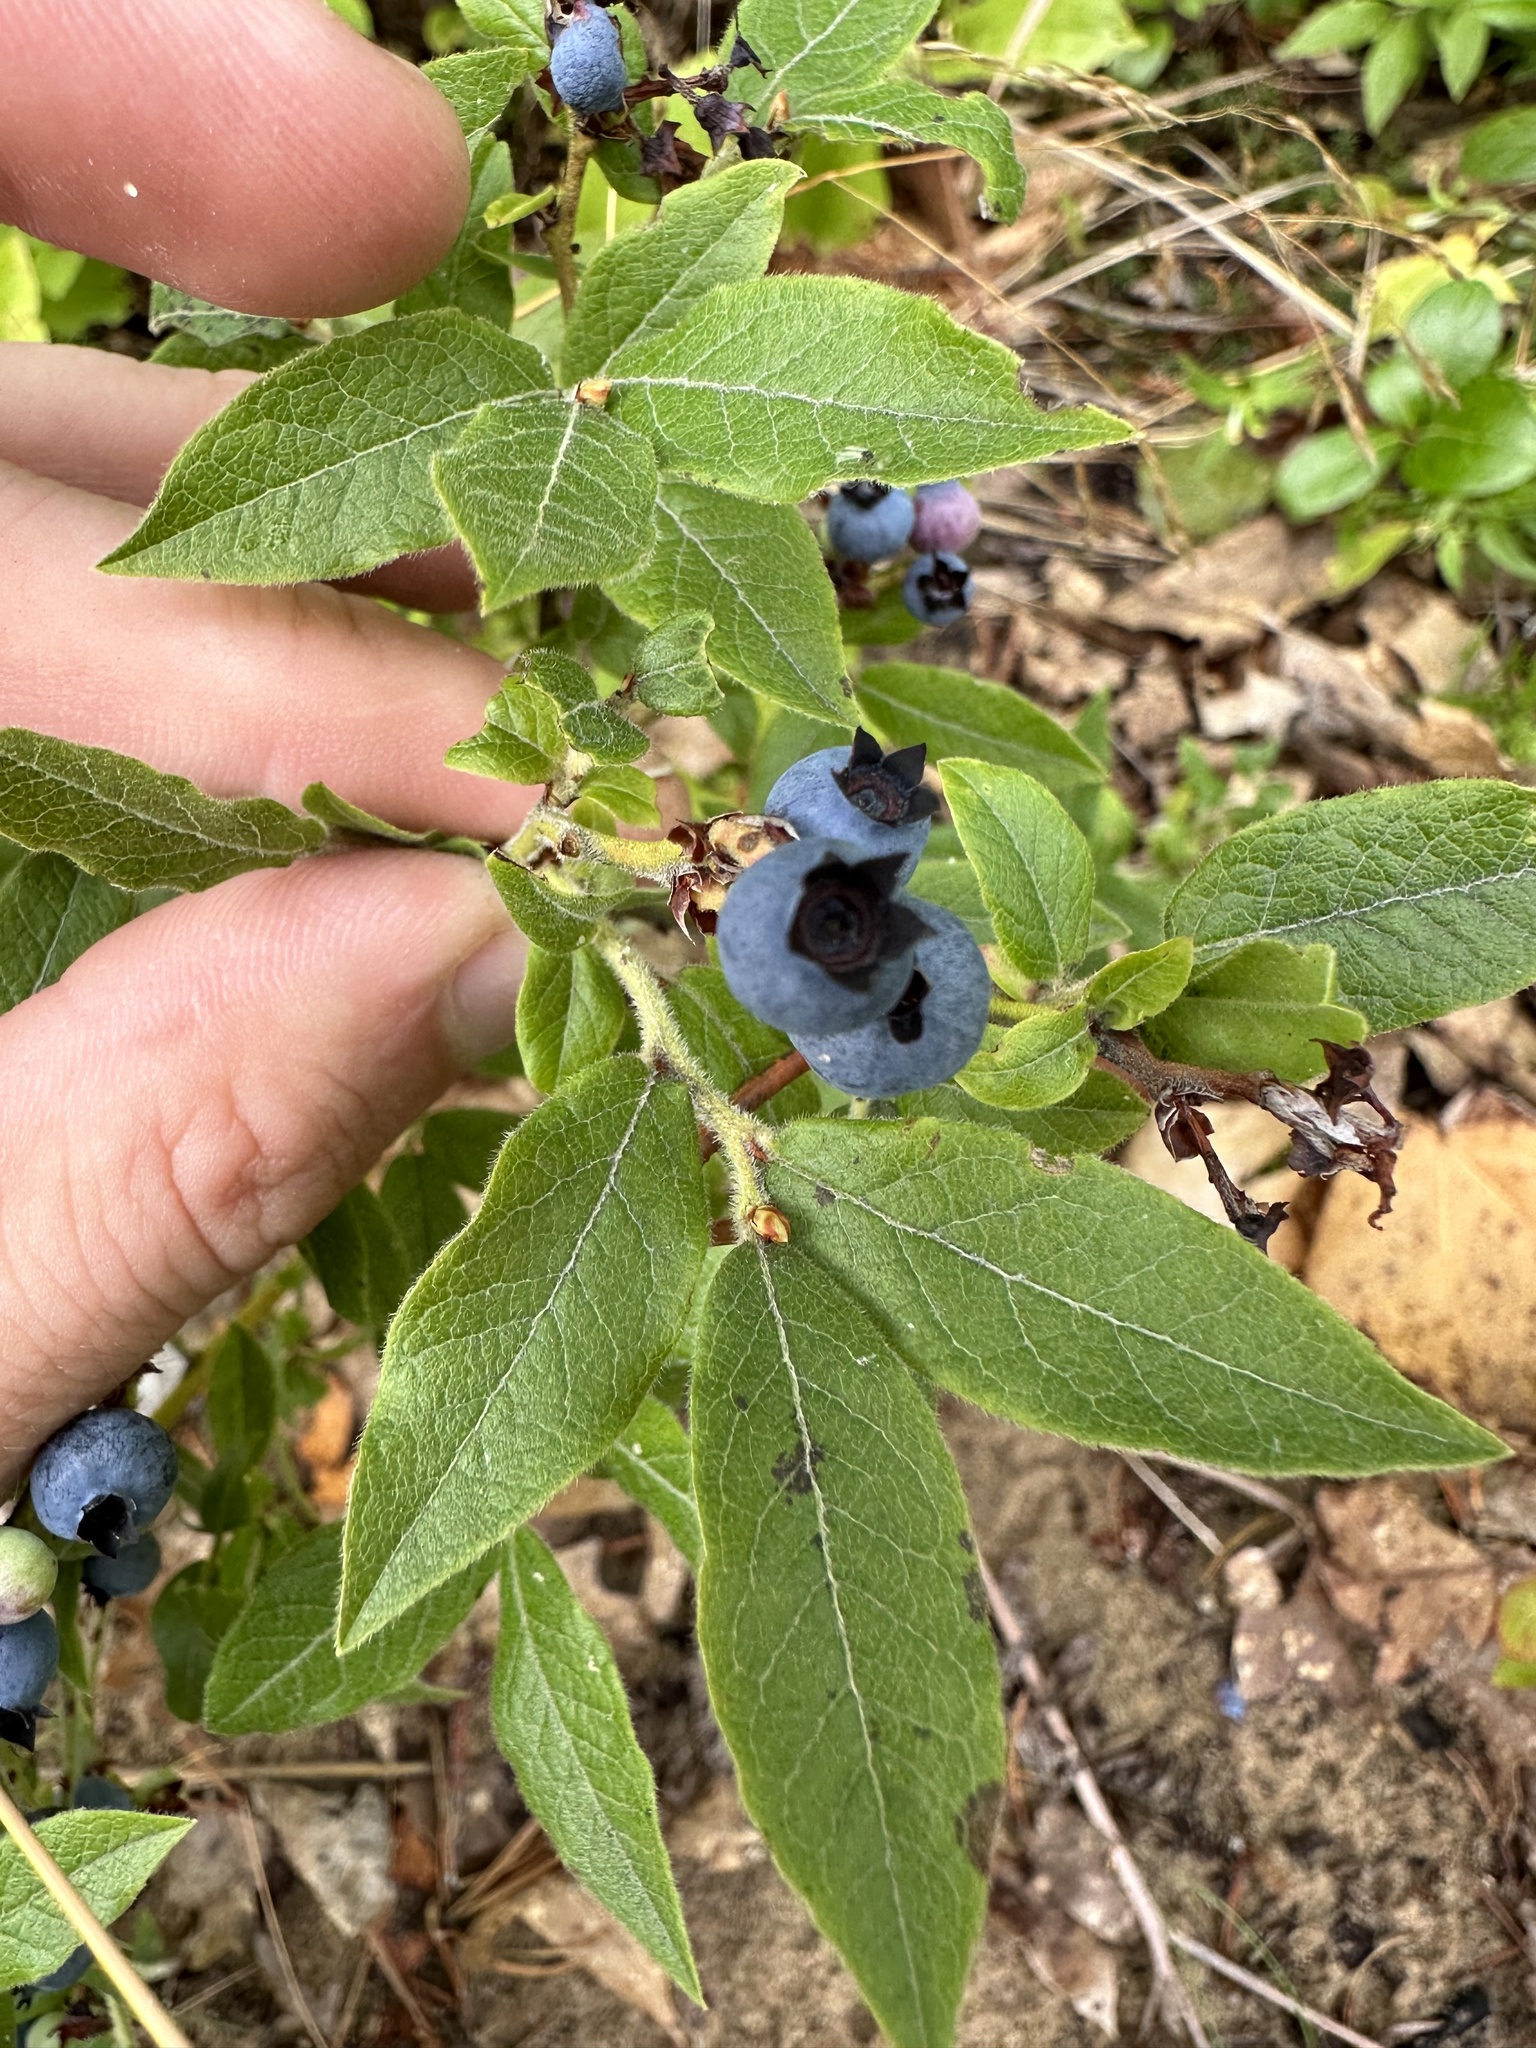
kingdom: Plantae
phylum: Tracheophyta
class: Magnoliopsida
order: Ericales
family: Ericaceae
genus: Vaccinium
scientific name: Vaccinium myrtilloides
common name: Canada blueberry
